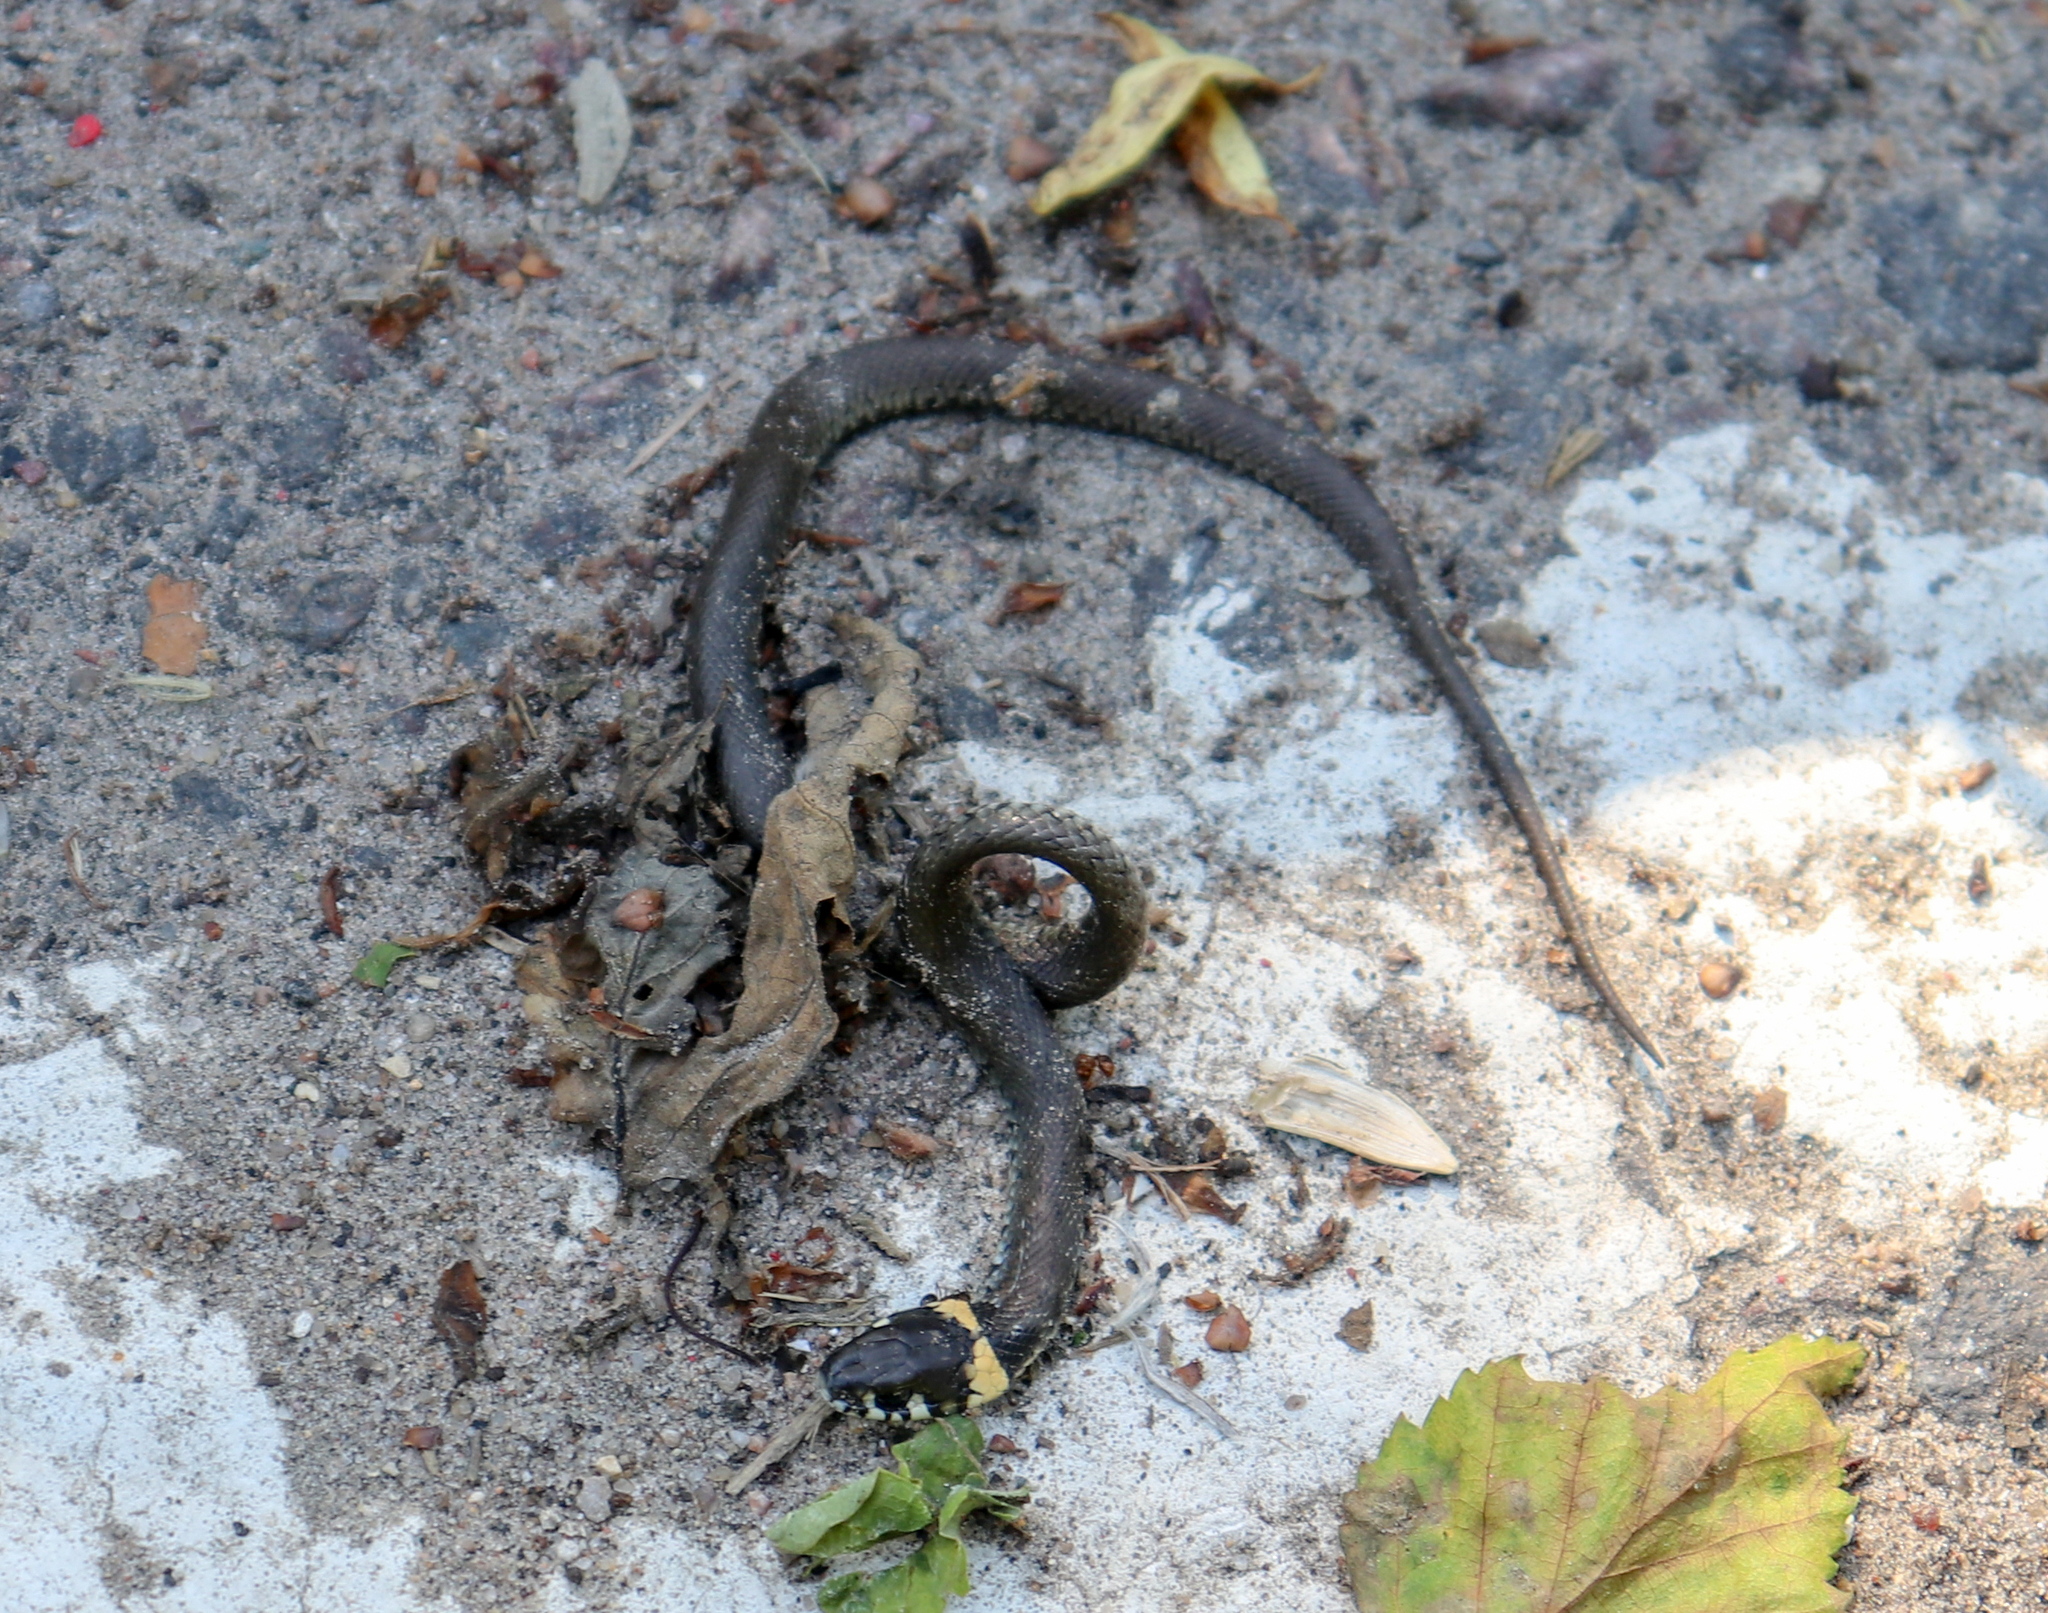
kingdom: Animalia
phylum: Chordata
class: Squamata
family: Colubridae
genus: Natrix
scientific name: Natrix natrix
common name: Grass snake
